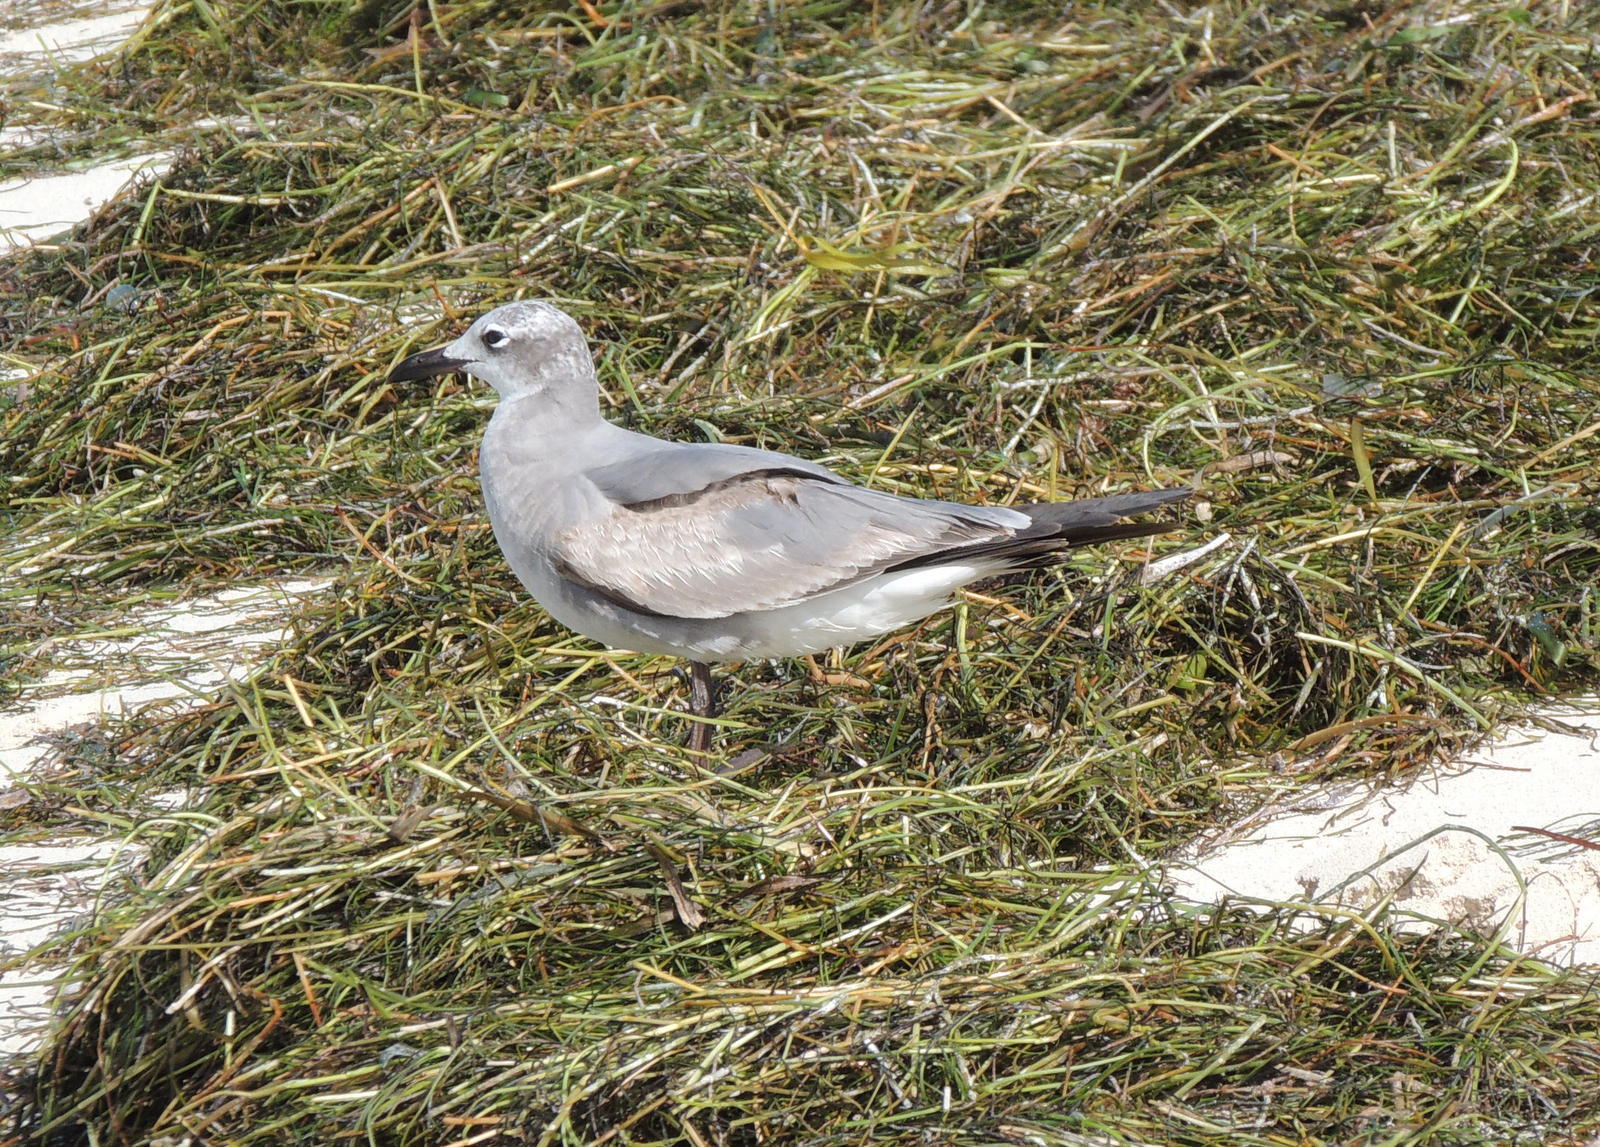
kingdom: Animalia
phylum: Chordata
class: Aves
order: Charadriiformes
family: Laridae
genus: Leucophaeus
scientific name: Leucophaeus atricilla
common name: Laughing gull
